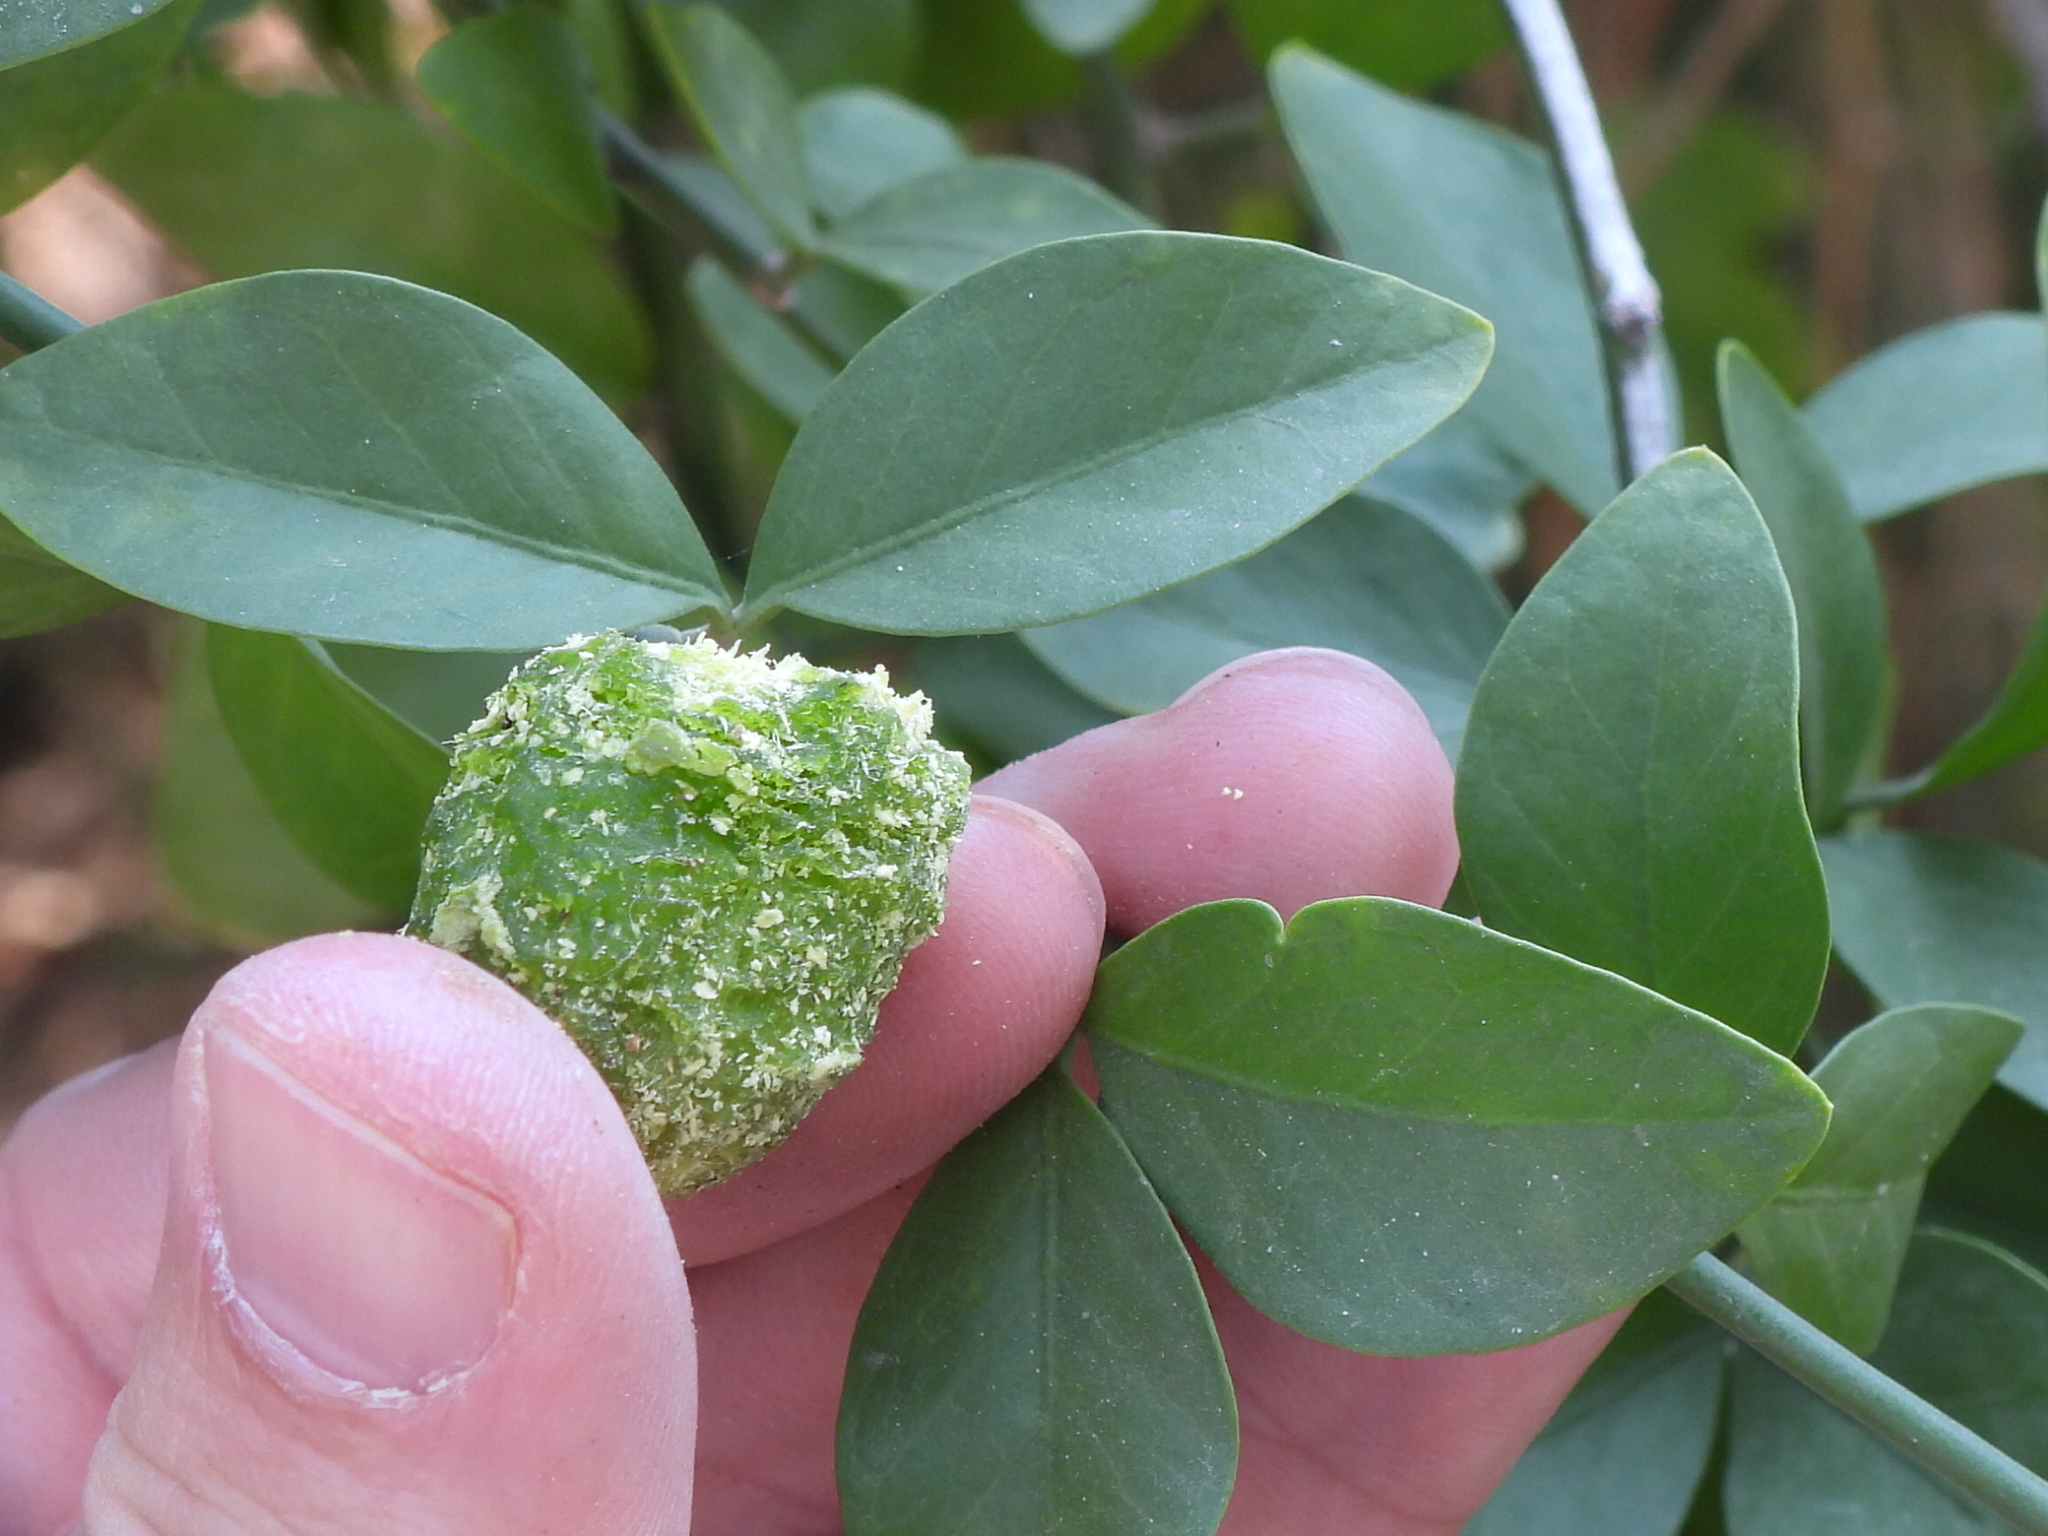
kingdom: Plantae
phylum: Tracheophyta
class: Magnoliopsida
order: Zygophyllales
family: Zygophyllaceae
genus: Balanites
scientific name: Balanites aegyptiaca
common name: Balanites
